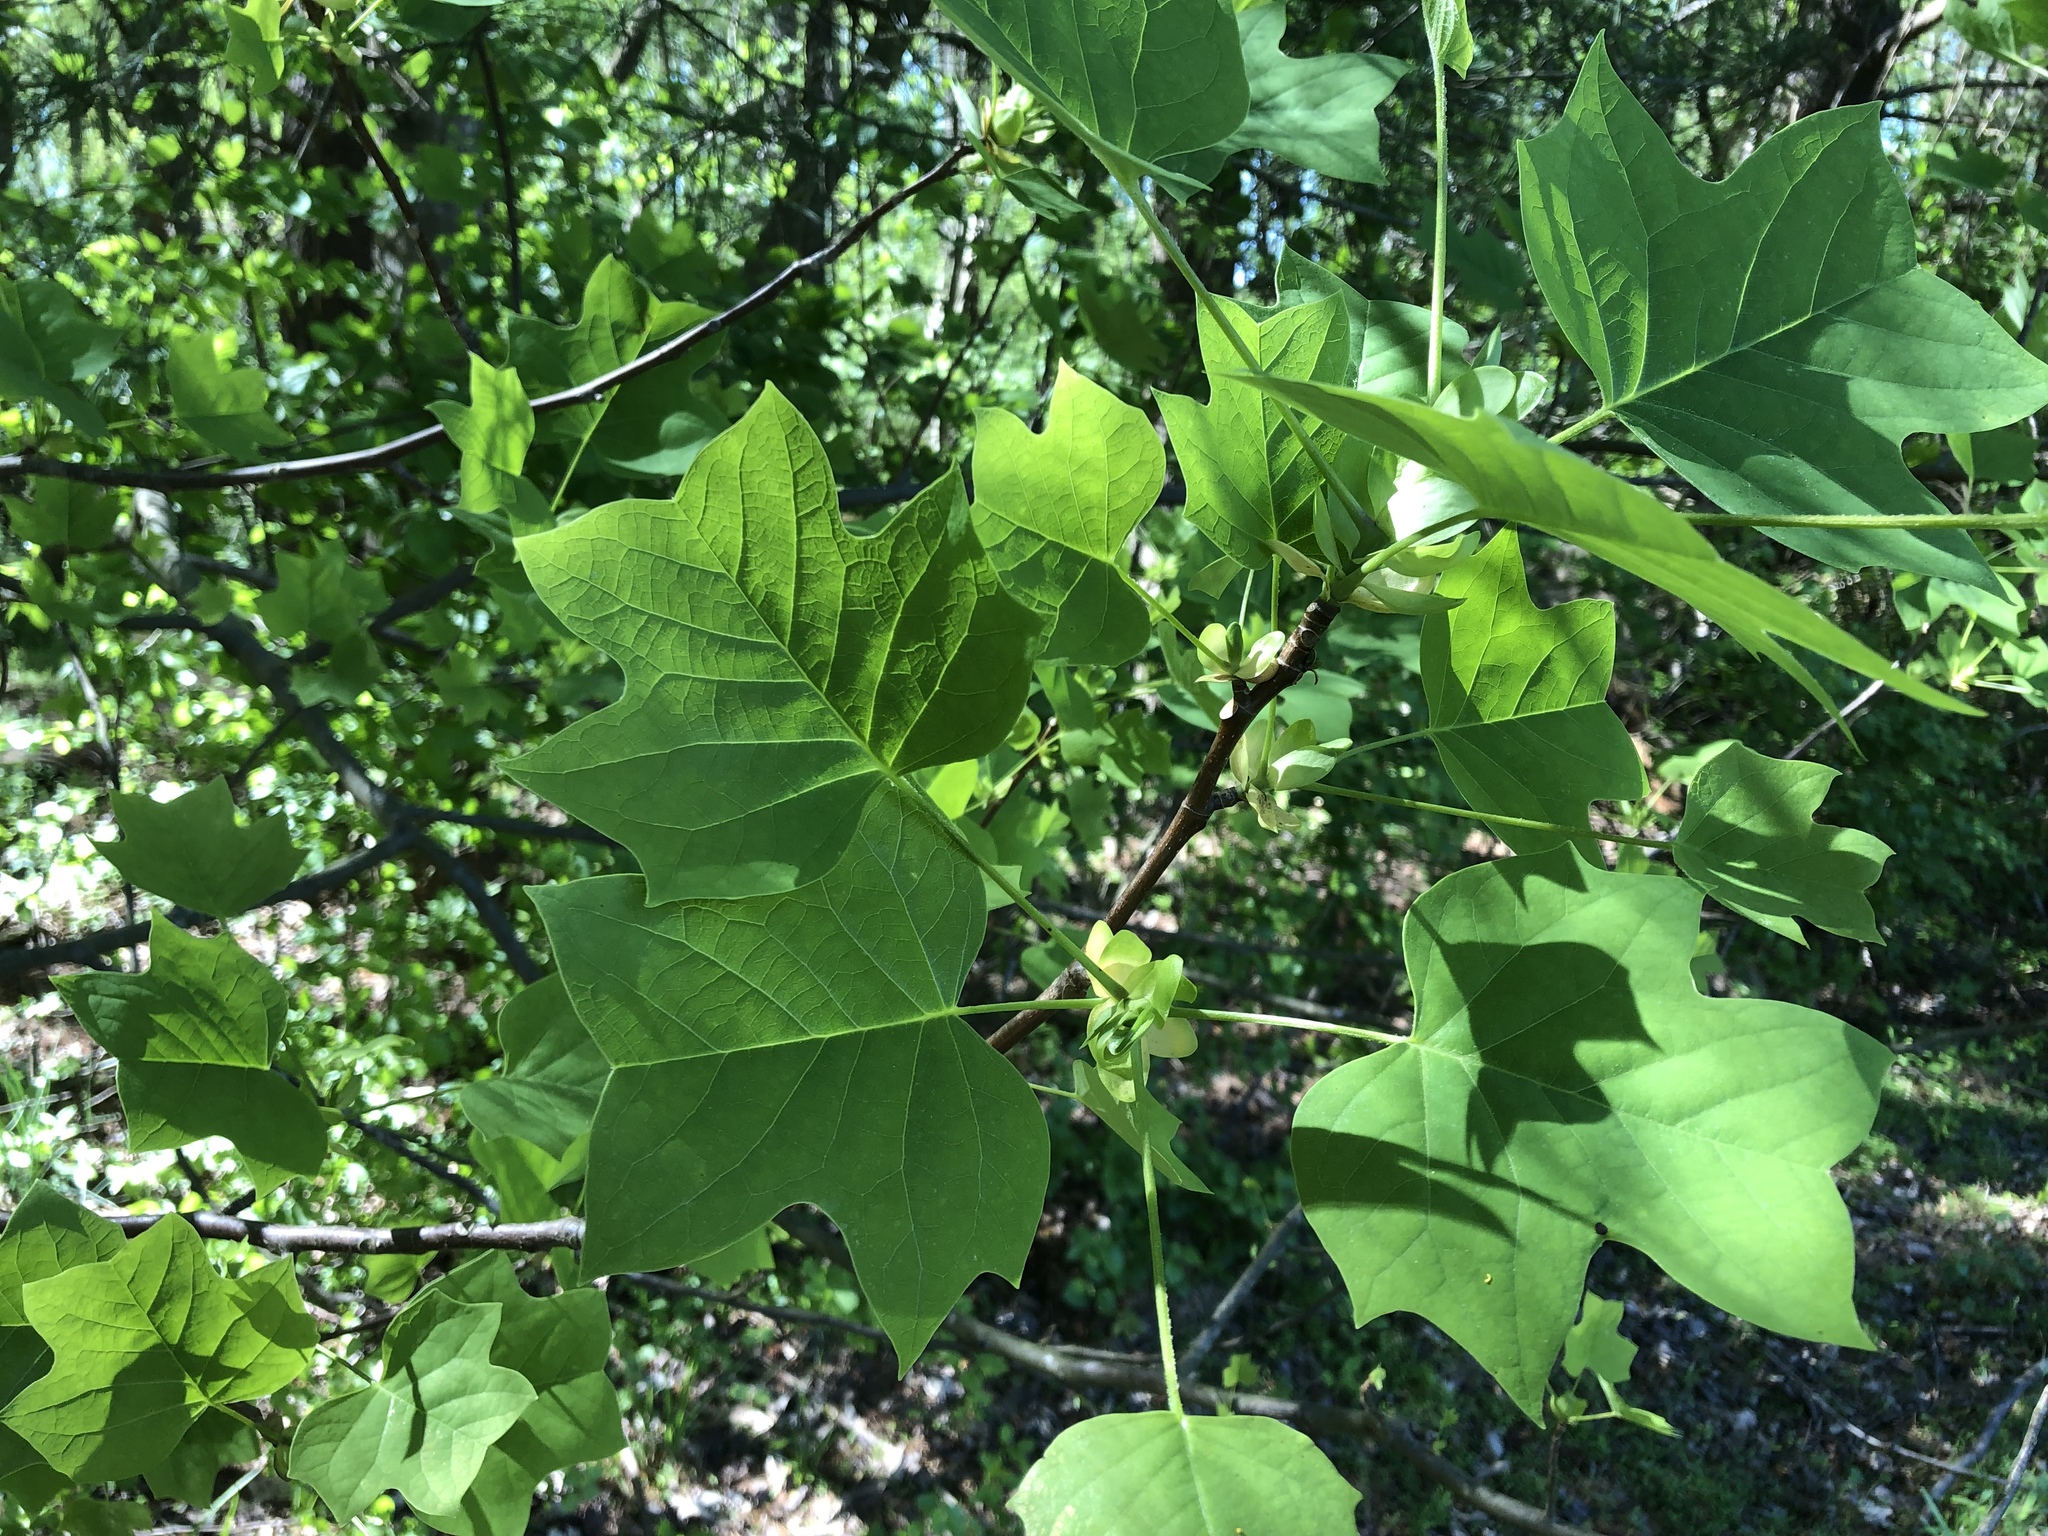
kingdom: Plantae
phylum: Tracheophyta
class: Magnoliopsida
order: Magnoliales
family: Magnoliaceae
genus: Liriodendron
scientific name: Liriodendron tulipifera
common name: Tulip tree
